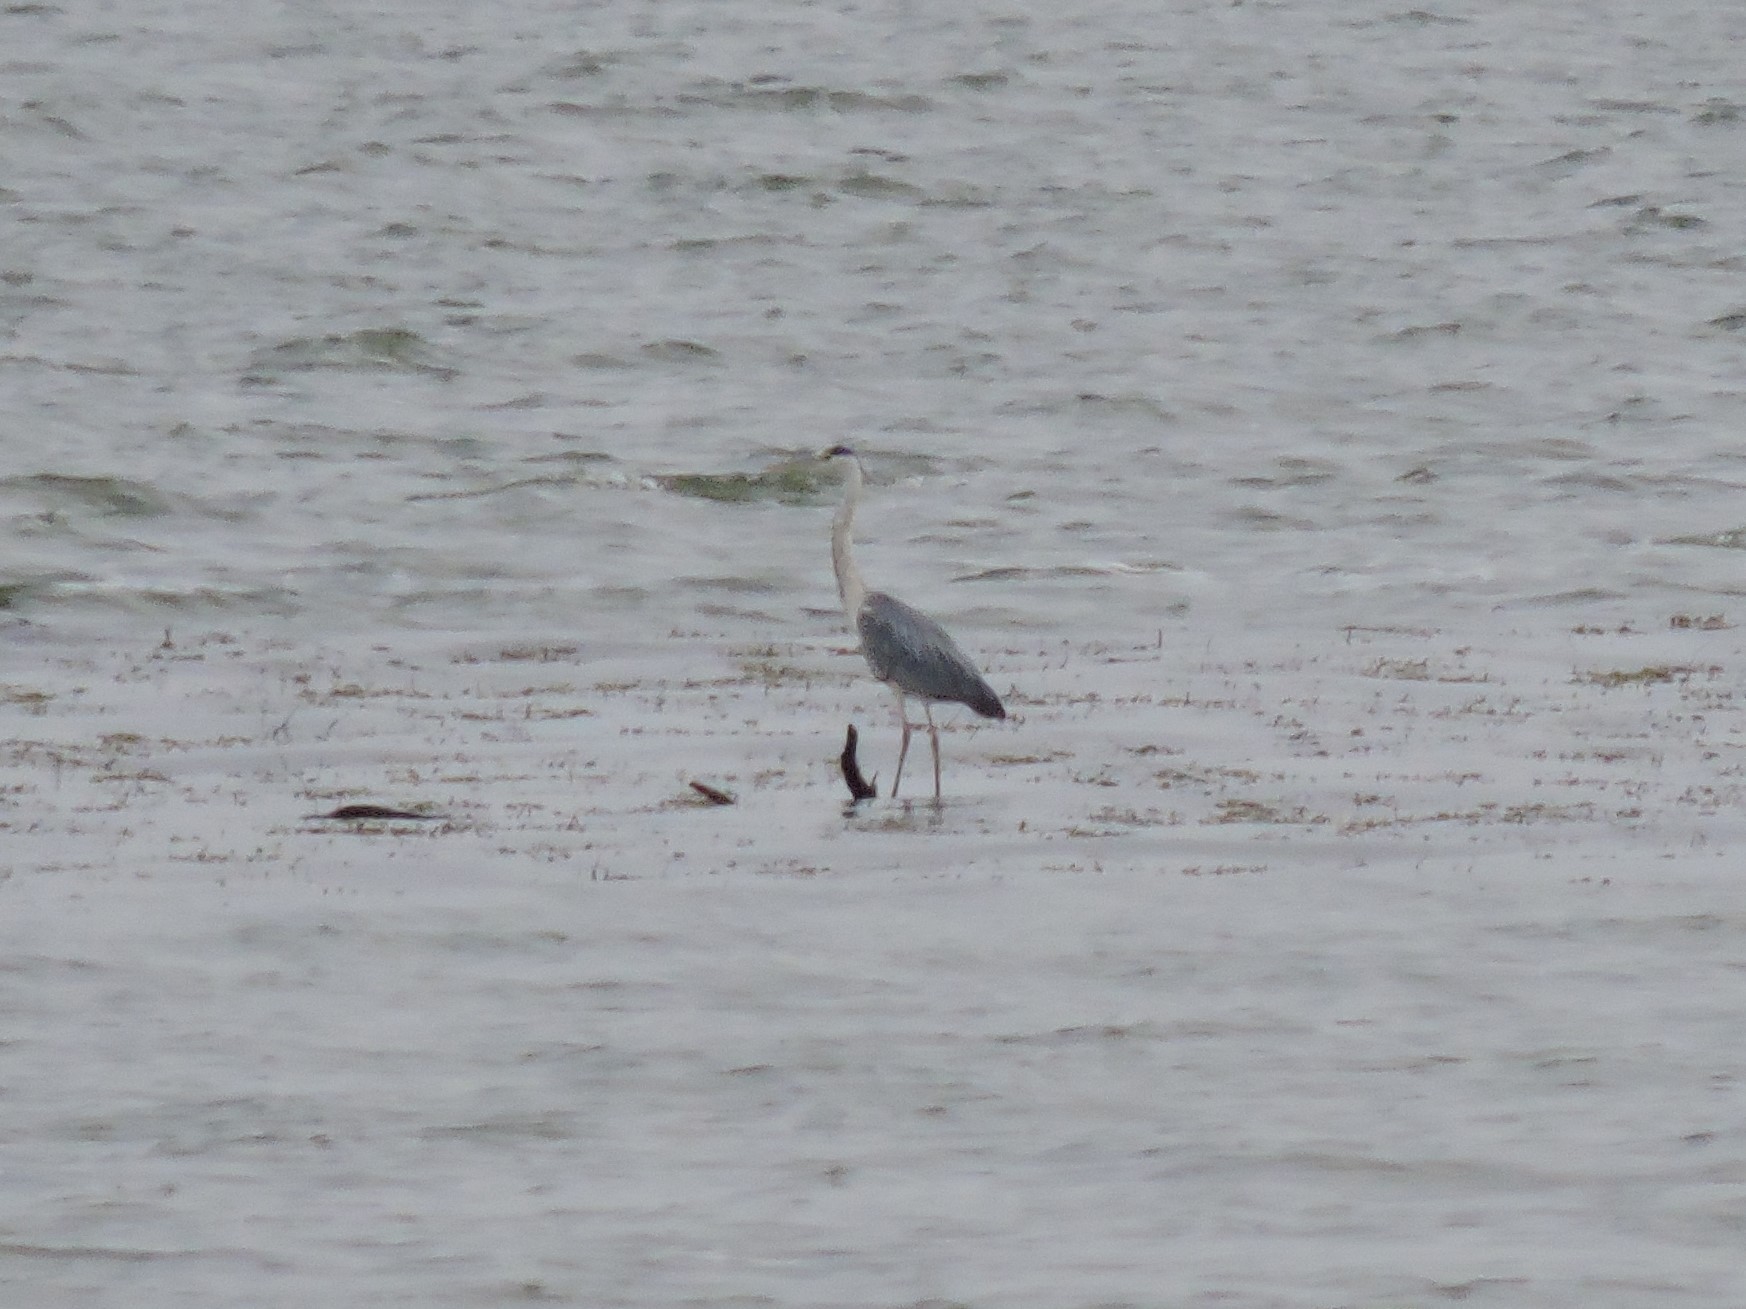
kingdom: Animalia
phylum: Chordata
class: Aves
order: Pelecaniformes
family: Ardeidae
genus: Ardea
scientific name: Ardea cinerea
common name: Grey heron
